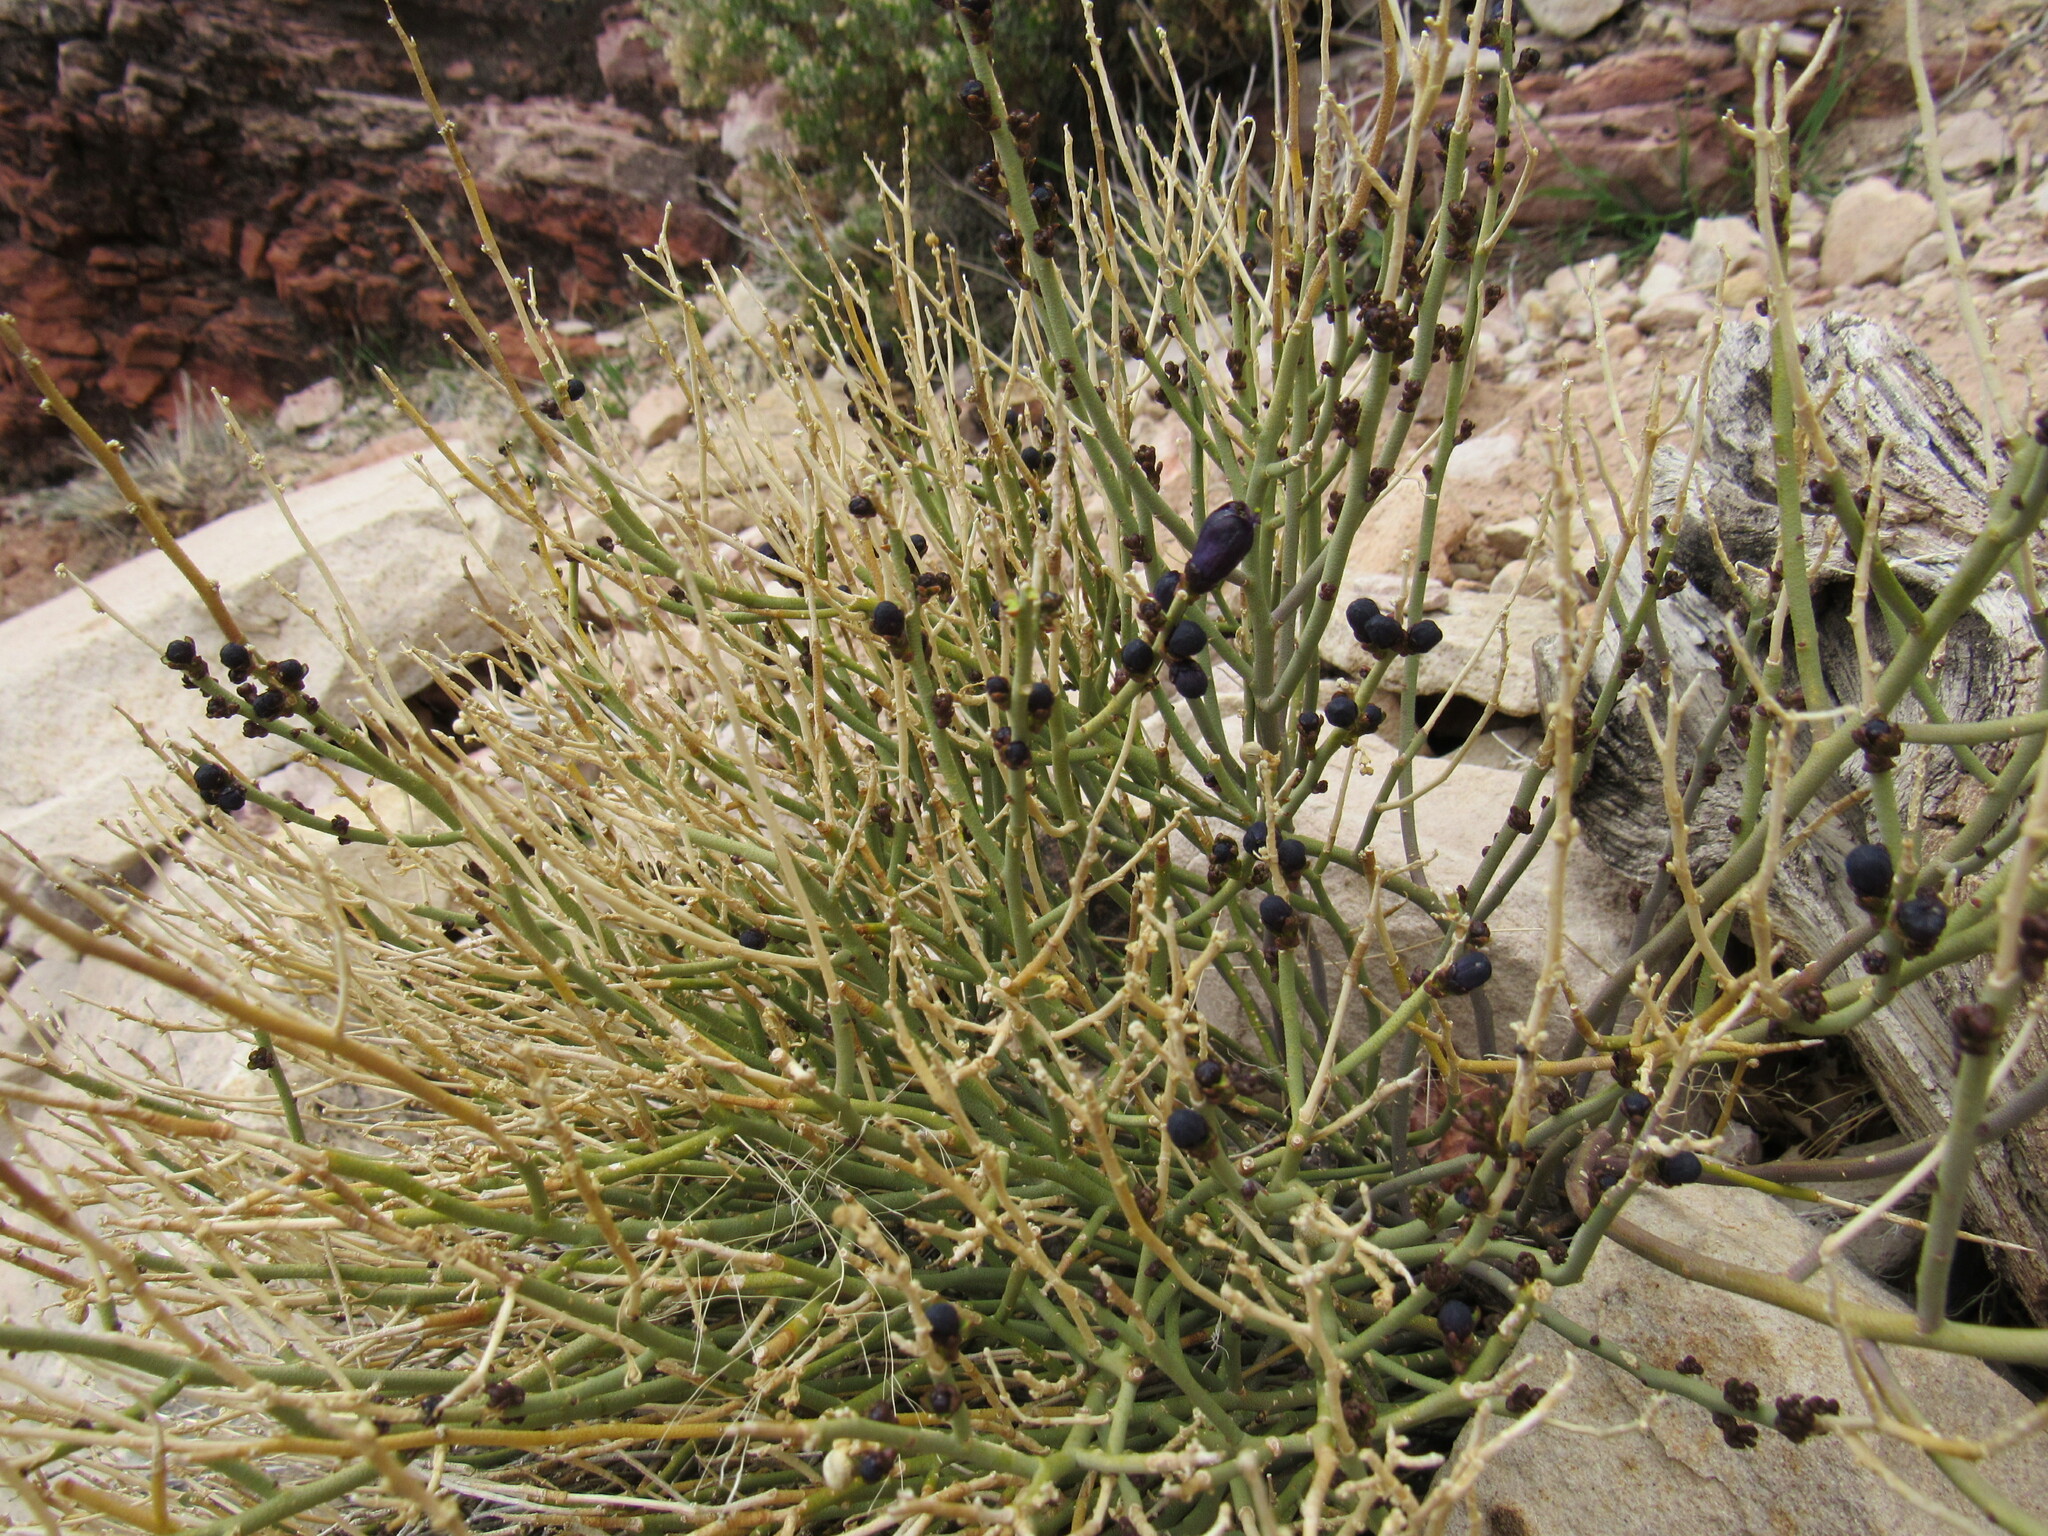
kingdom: Plantae
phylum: Tracheophyta
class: Magnoliopsida
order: Sapindales
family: Rutaceae
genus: Thamnosma
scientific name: Thamnosma montana
